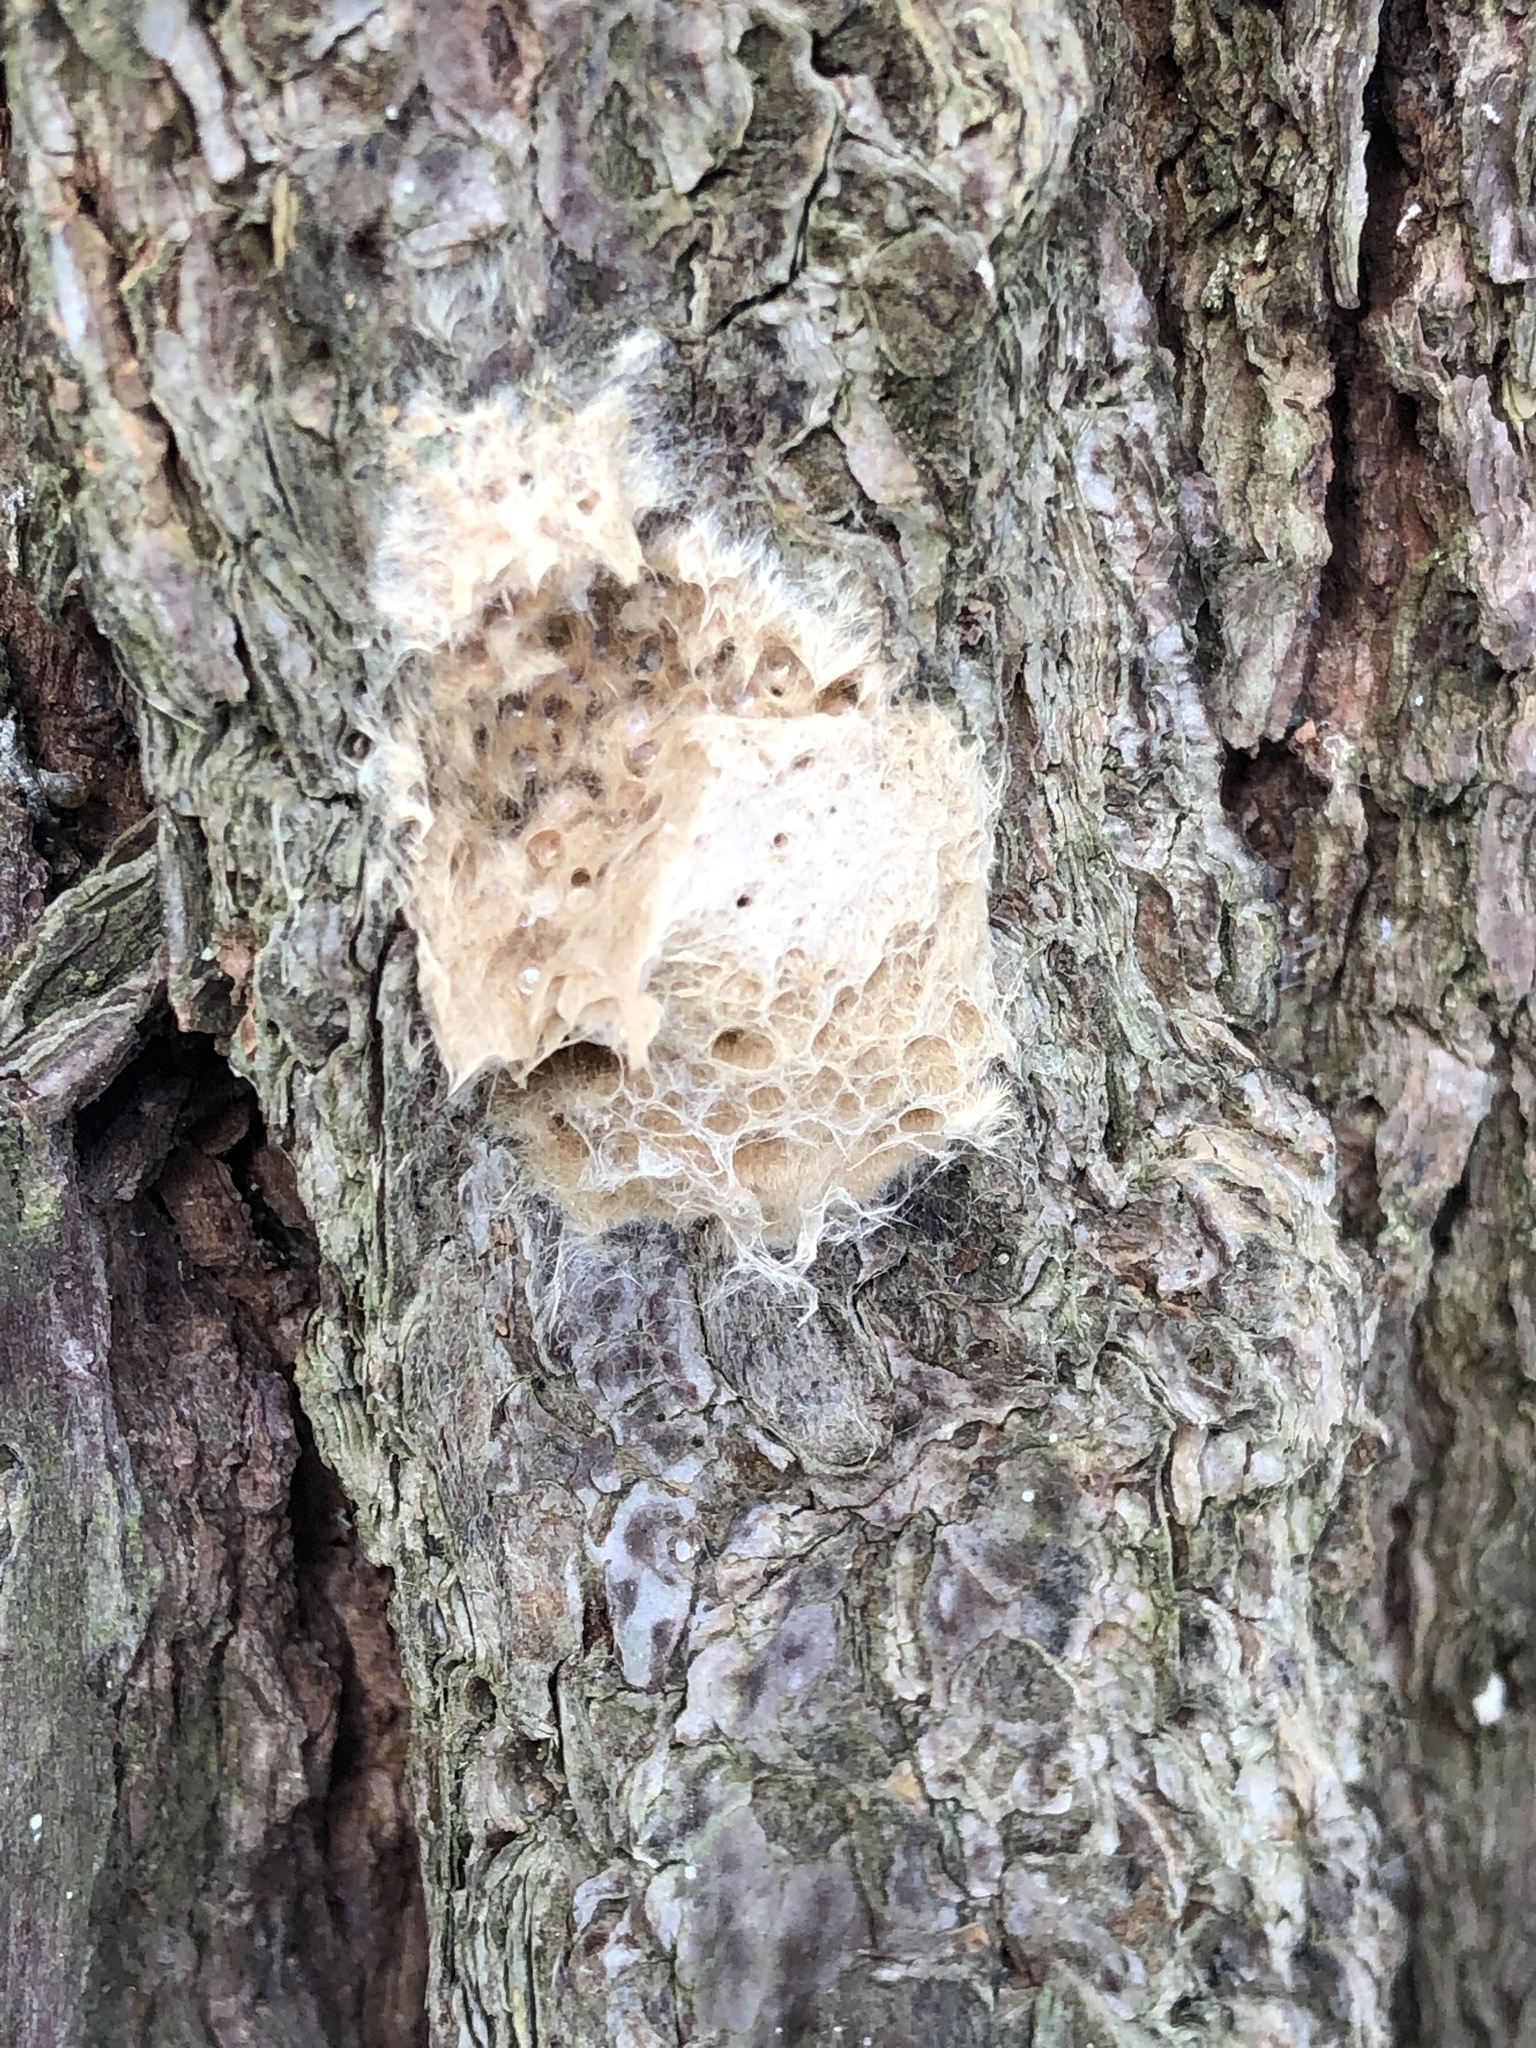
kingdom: Animalia
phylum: Arthropoda
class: Insecta
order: Lepidoptera
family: Erebidae
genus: Lymantria
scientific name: Lymantria dispar
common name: Gypsy moth
